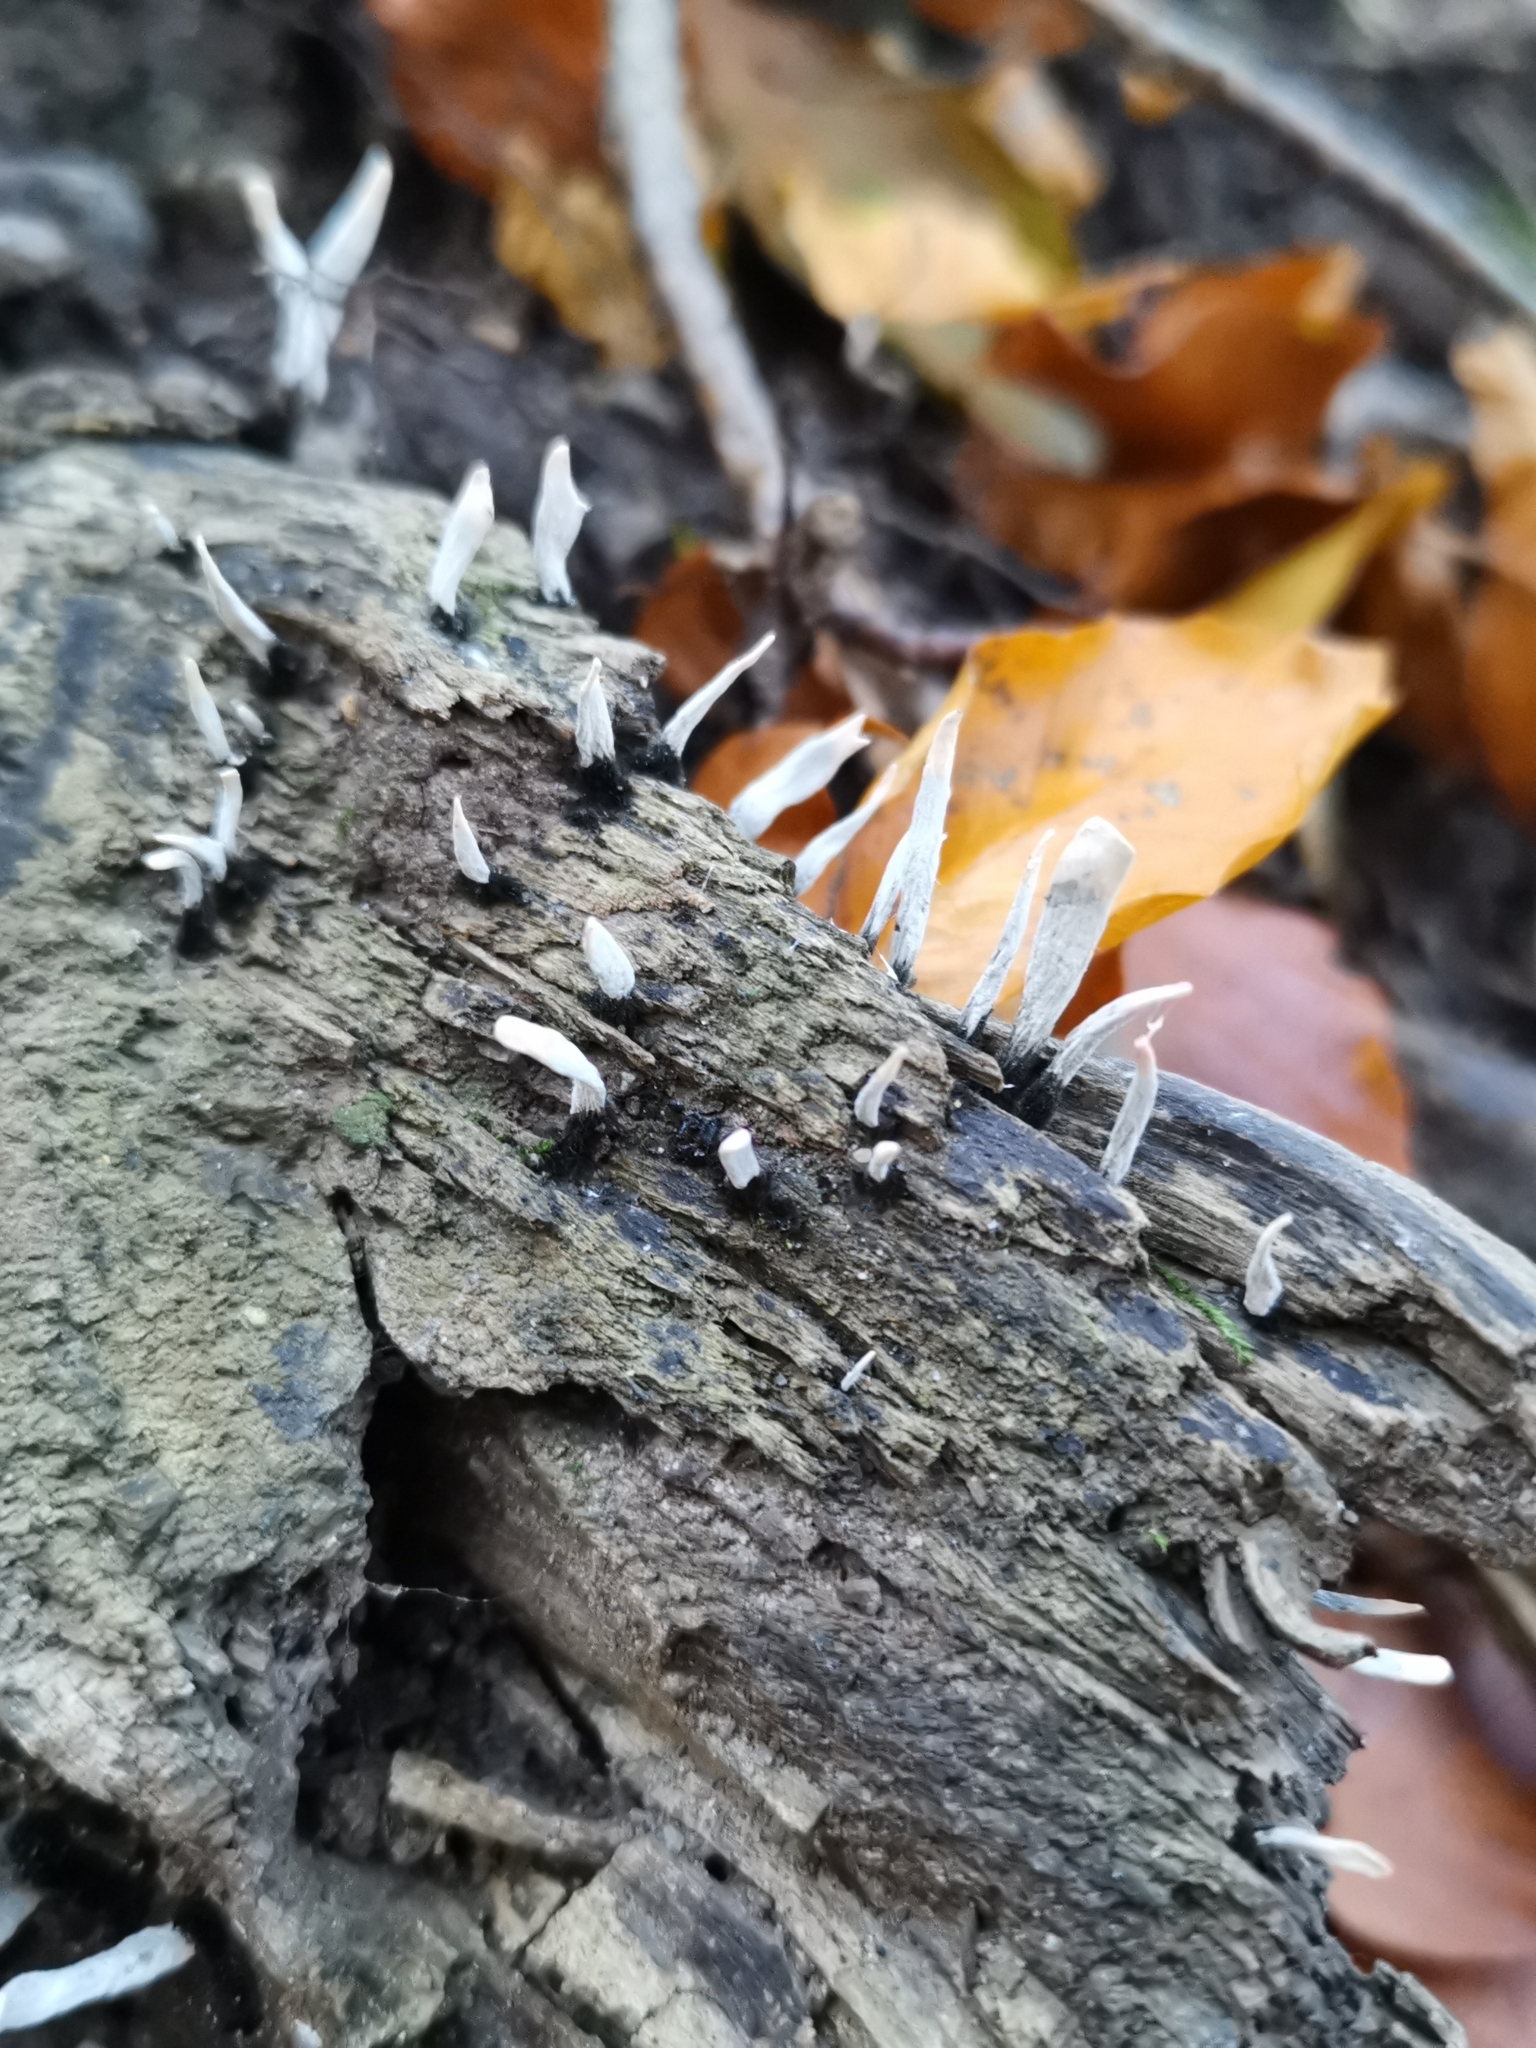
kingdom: Fungi
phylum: Ascomycota
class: Sordariomycetes
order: Xylariales
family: Xylariaceae
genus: Xylaria
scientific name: Xylaria hypoxylon
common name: Candle-snuff fungus
